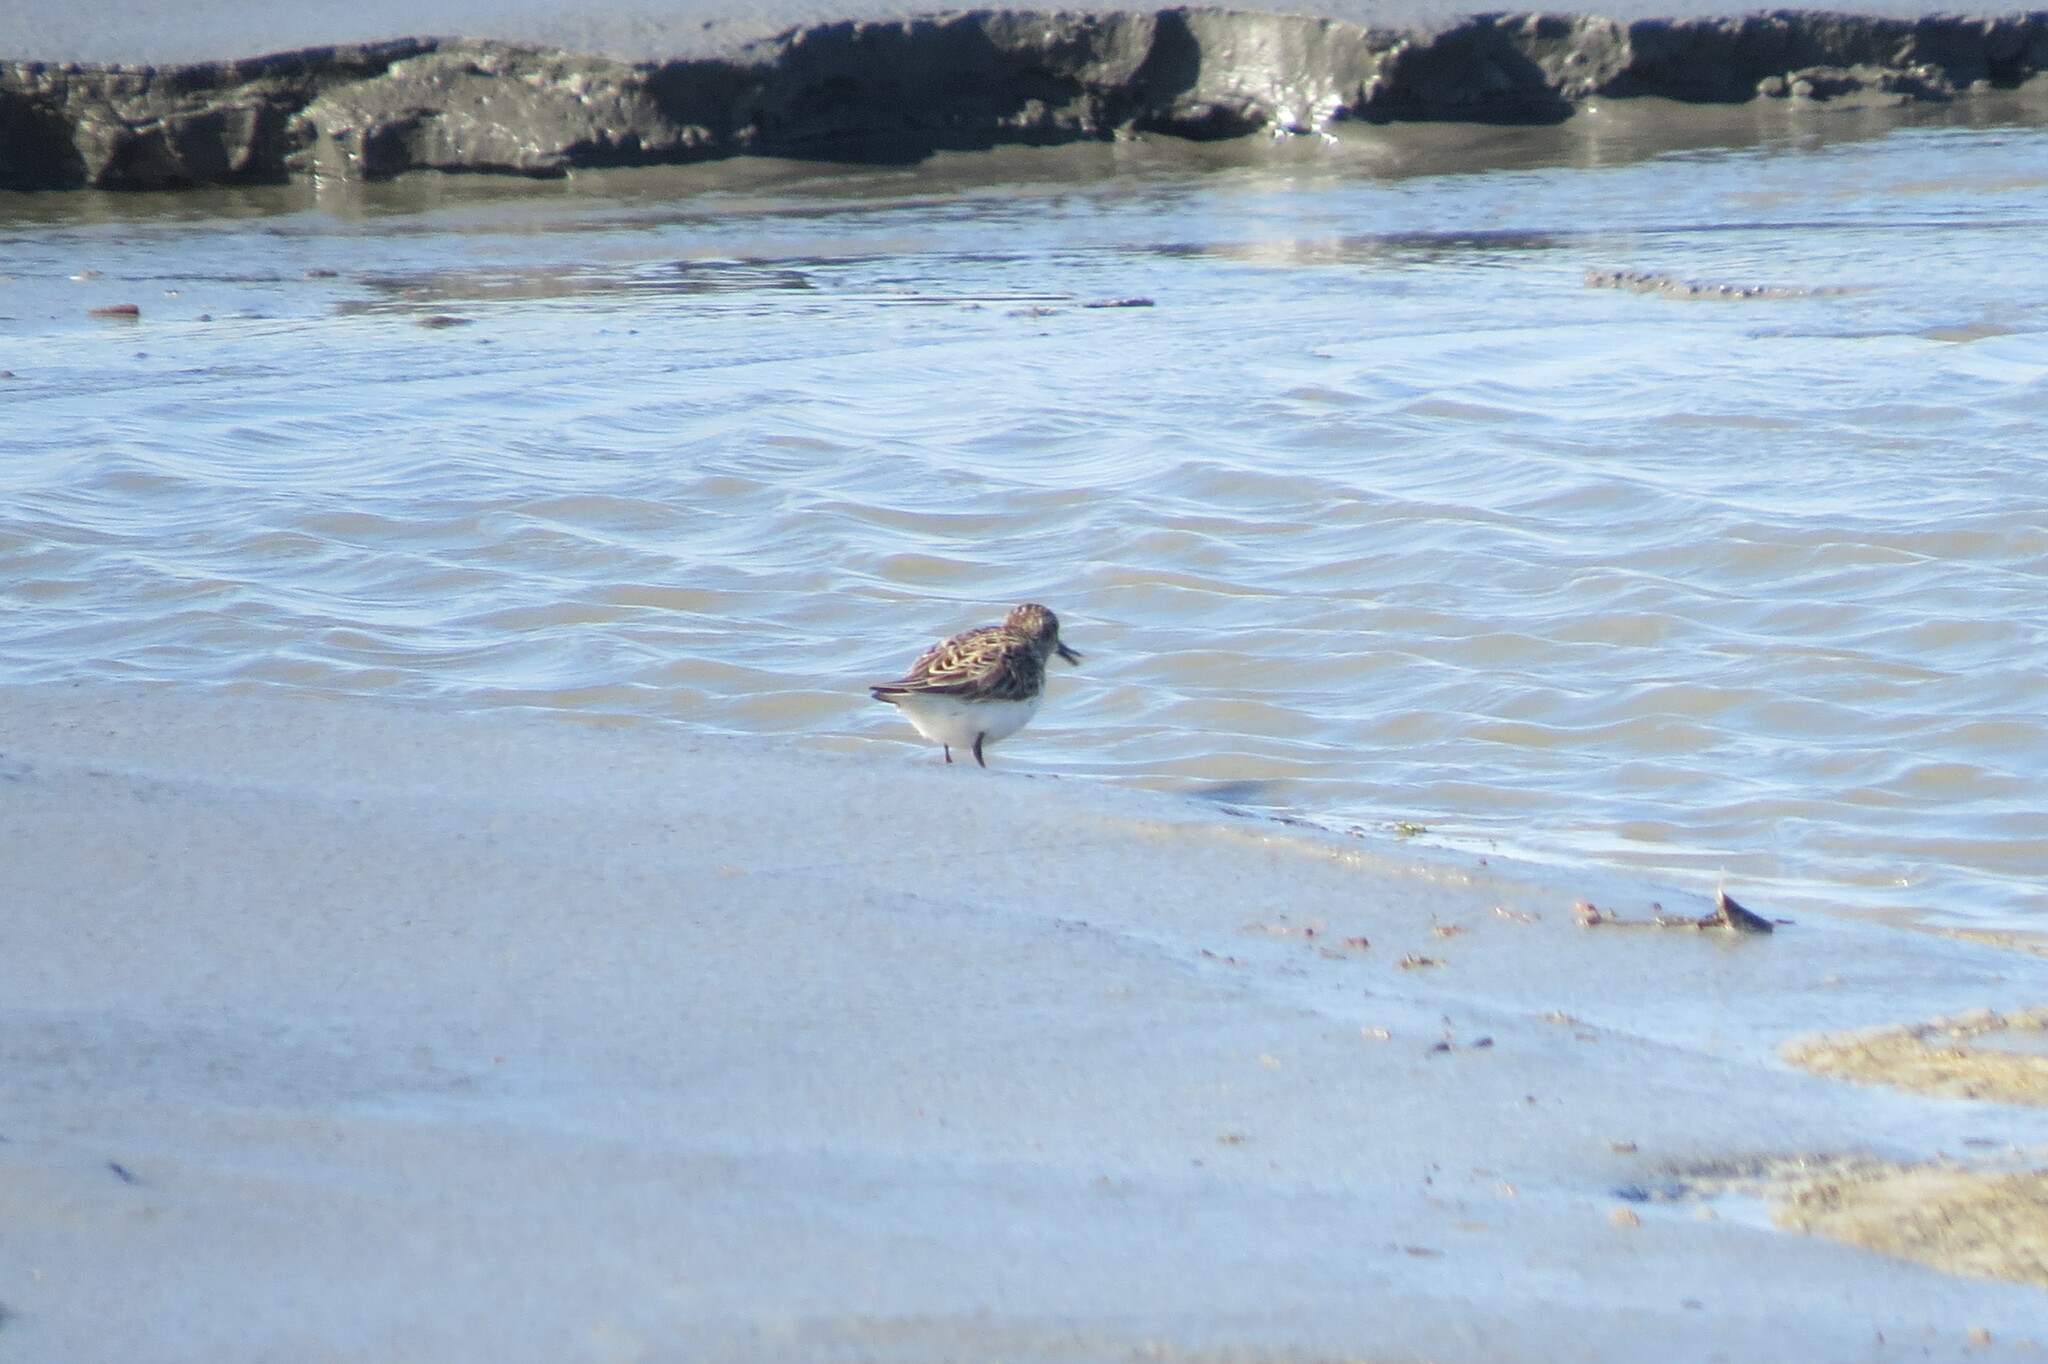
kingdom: Animalia
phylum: Chordata
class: Aves
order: Charadriiformes
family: Scolopacidae
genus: Calidris
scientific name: Calidris pusilla
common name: Semipalmated sandpiper
